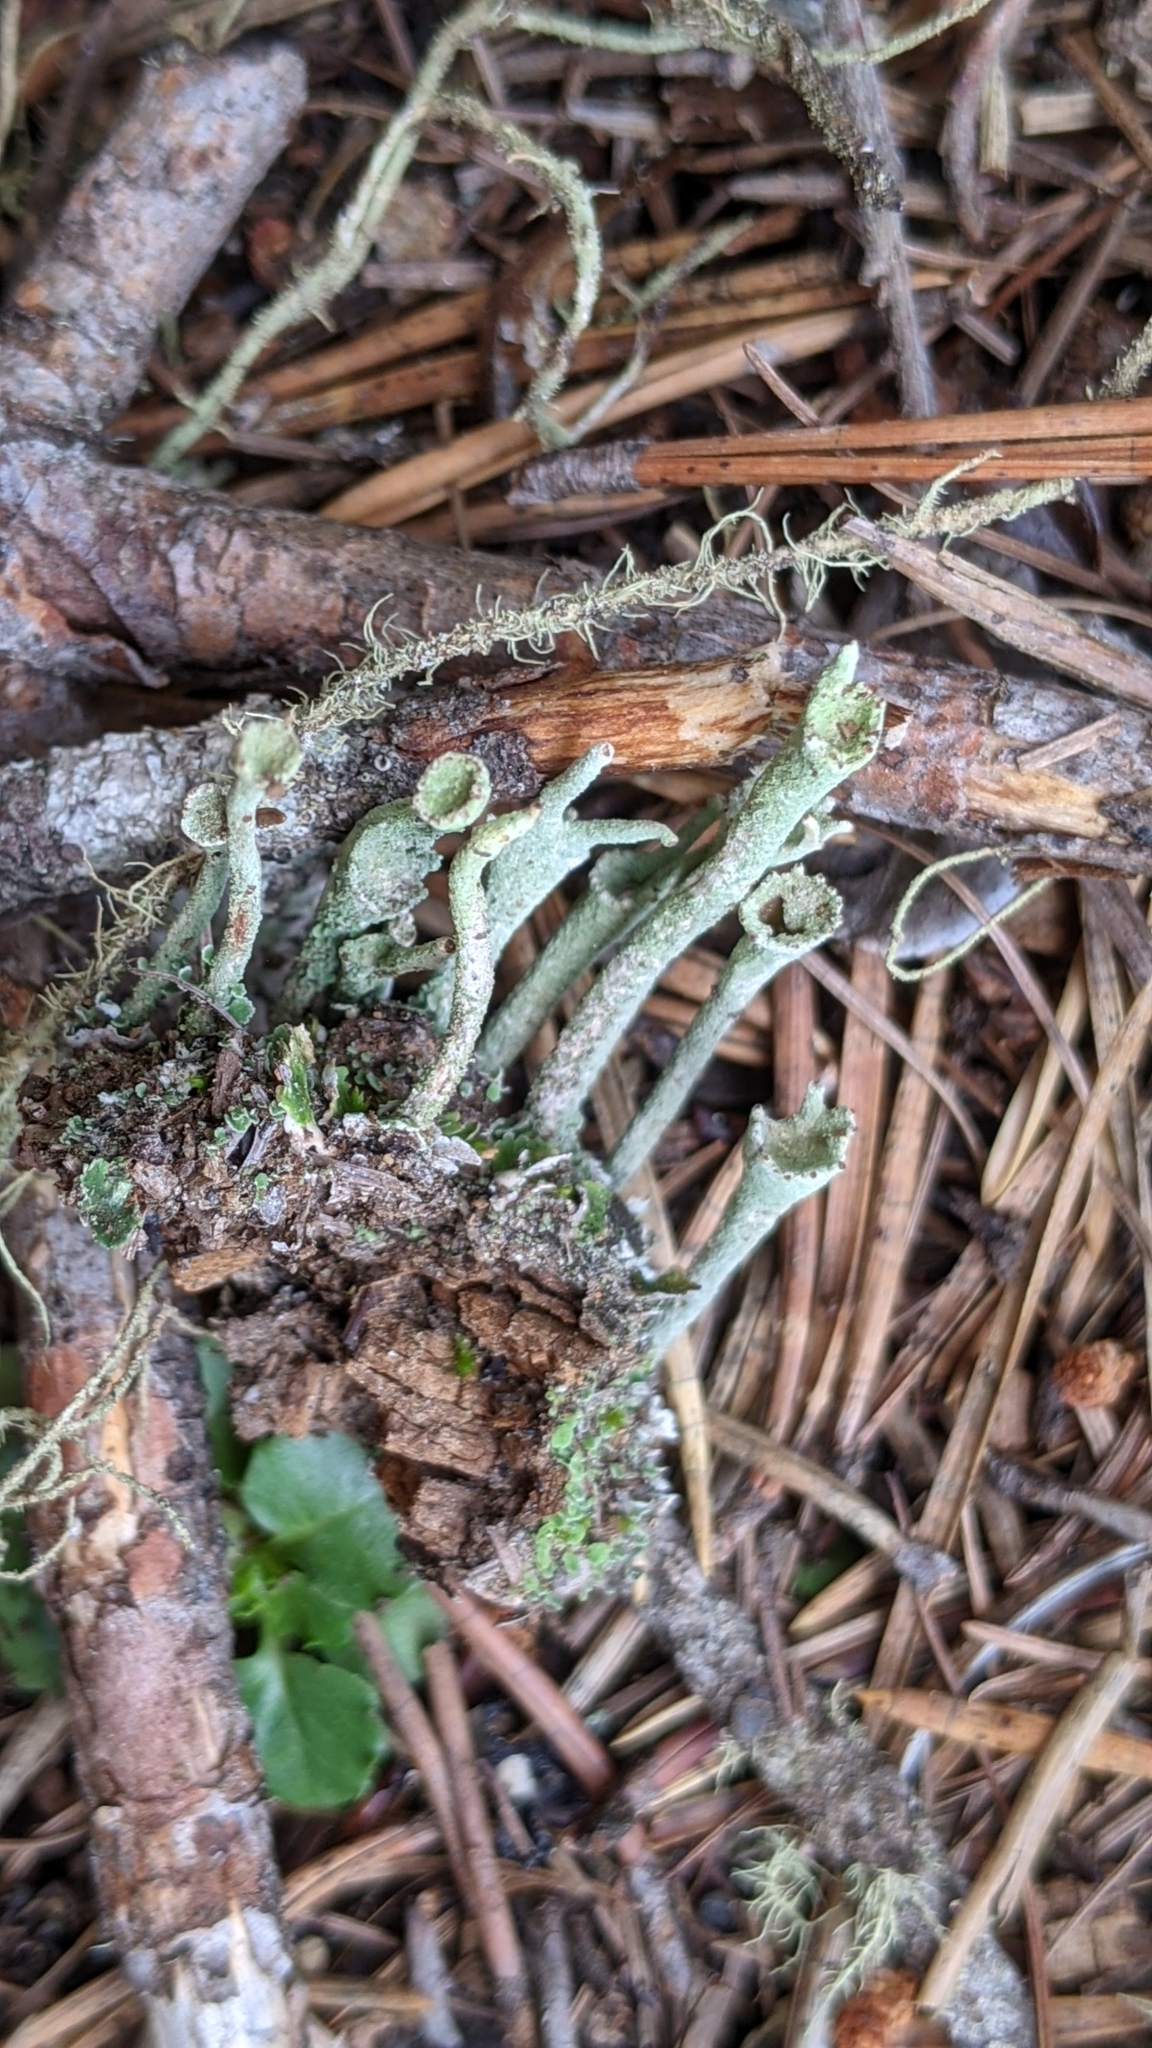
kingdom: Fungi
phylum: Ascomycota
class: Lecanoromycetes
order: Lecanorales
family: Cladoniaceae
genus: Cladonia
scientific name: Cladonia fimbriata
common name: Powdered trumpet lichen
